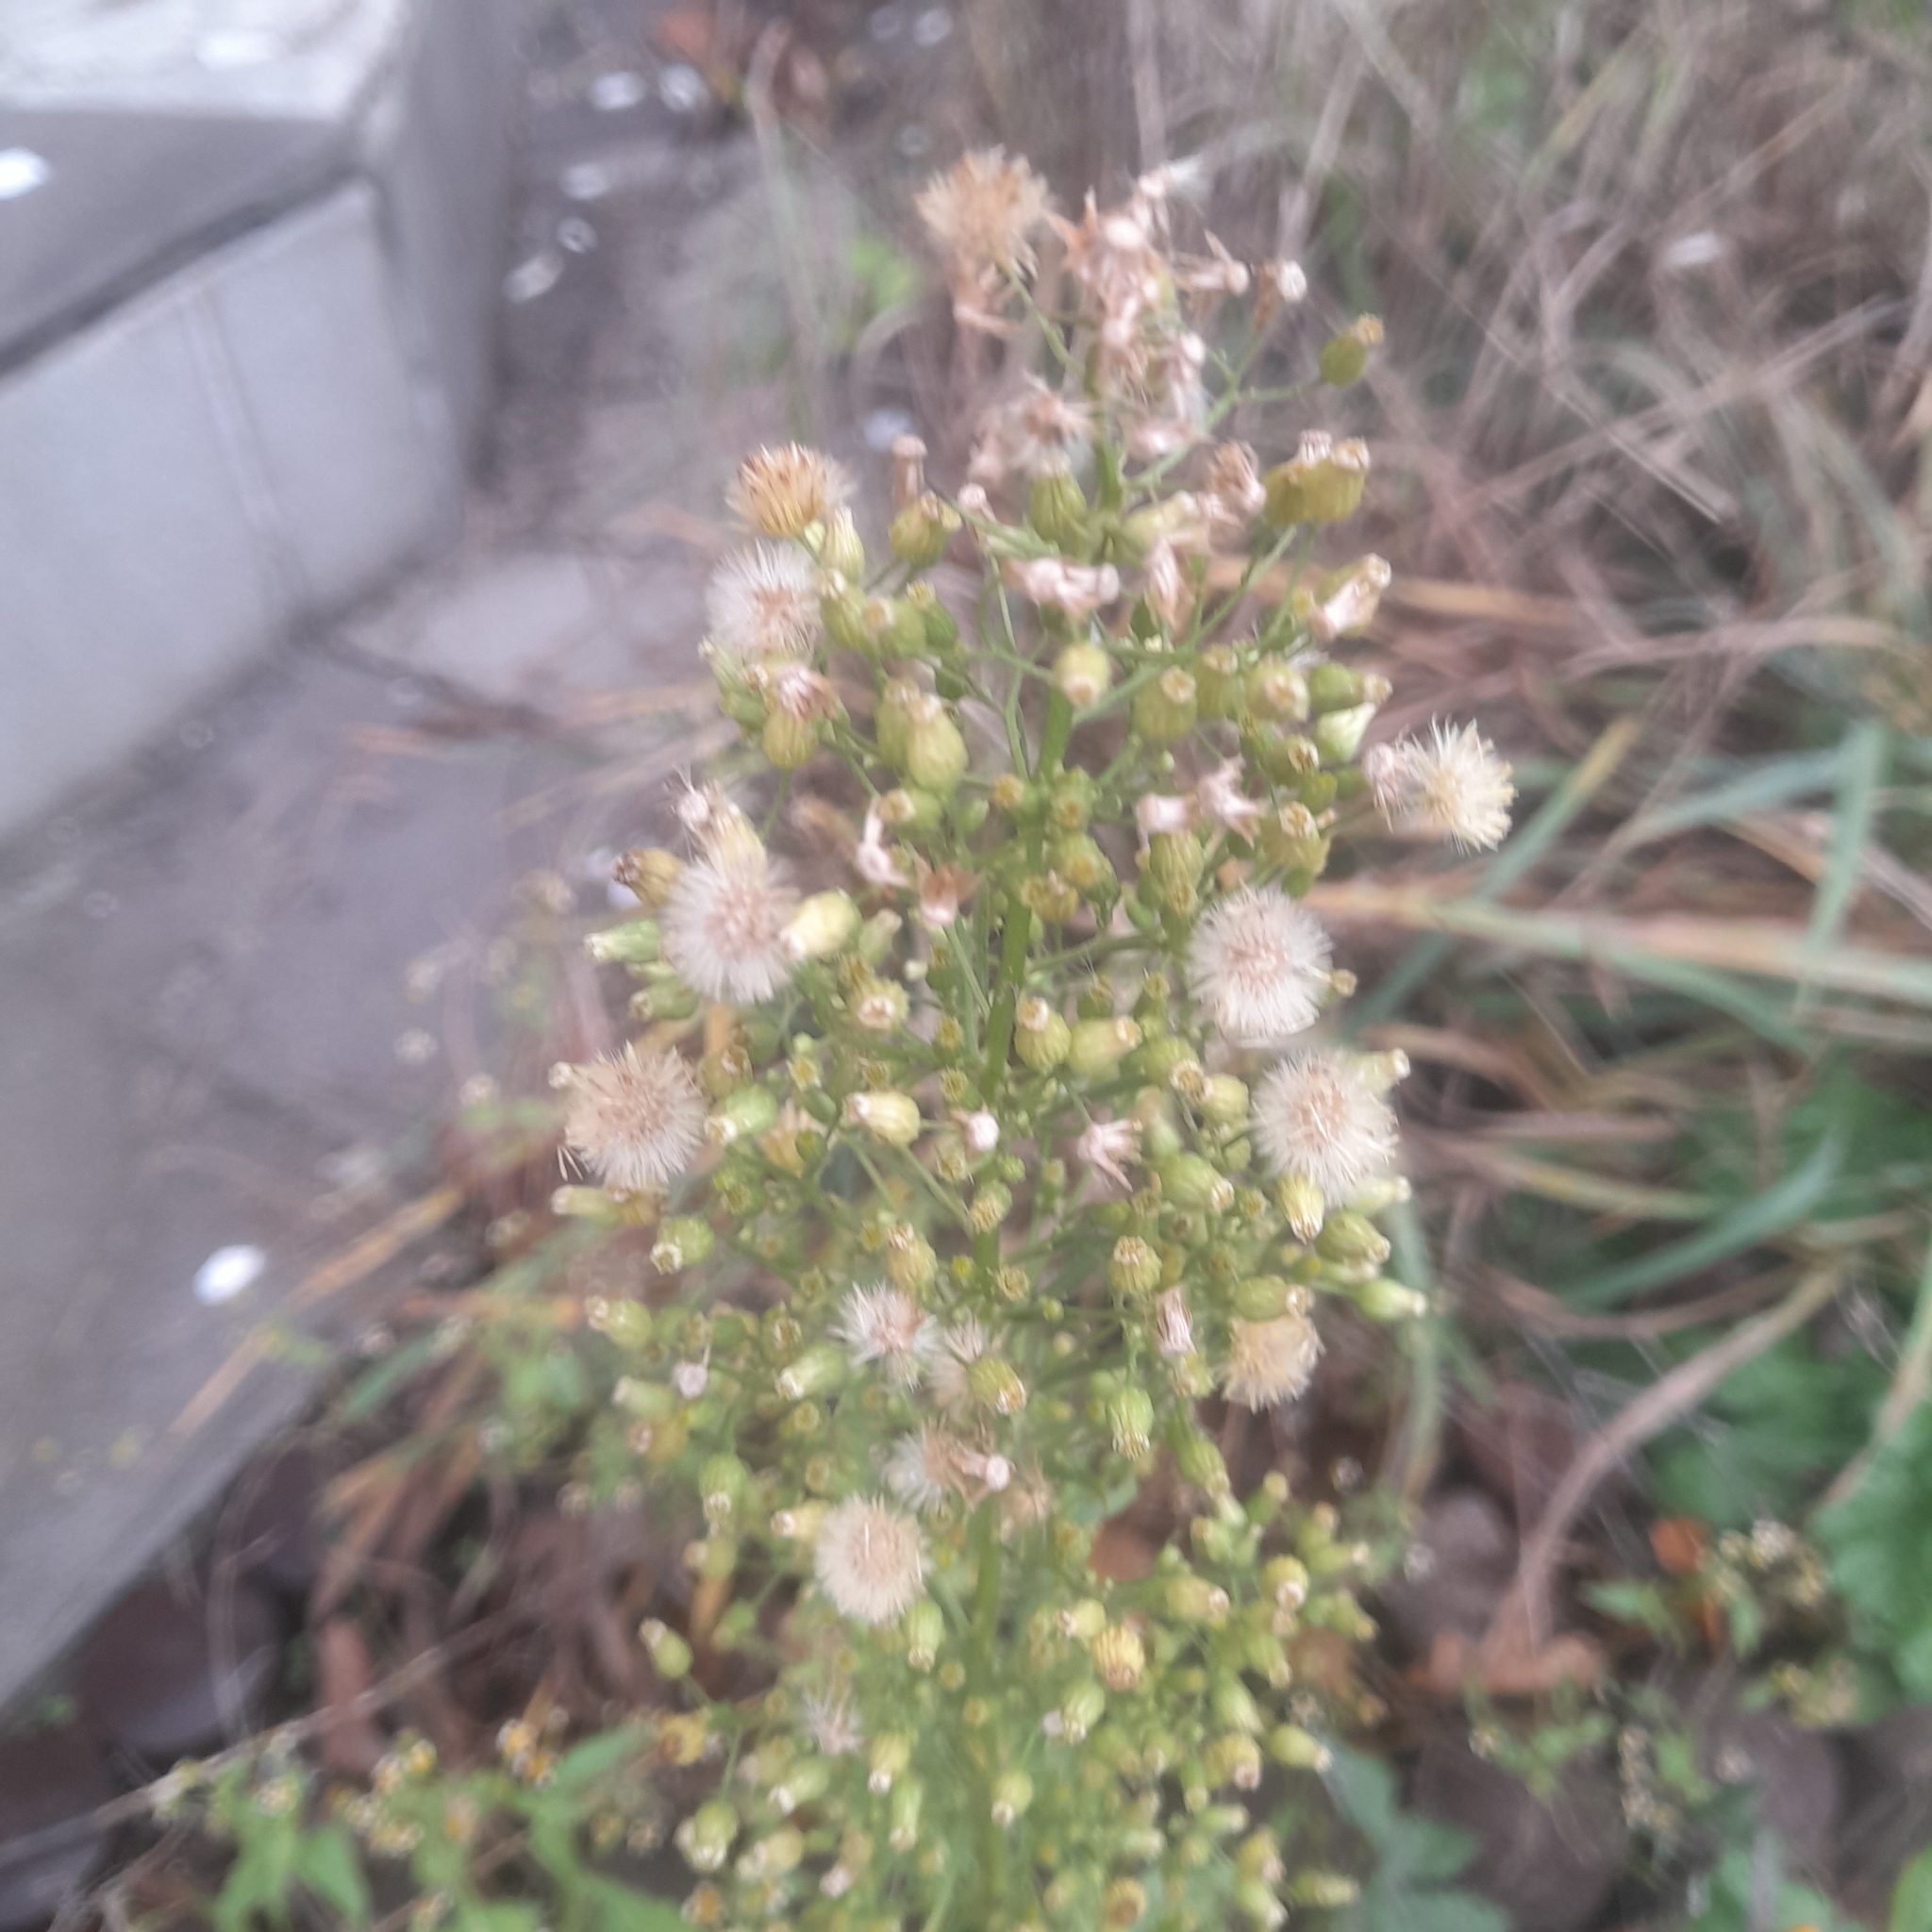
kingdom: Plantae
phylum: Tracheophyta
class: Magnoliopsida
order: Asterales
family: Asteraceae
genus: Erigeron
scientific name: Erigeron canadensis
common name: Canadian fleabane
